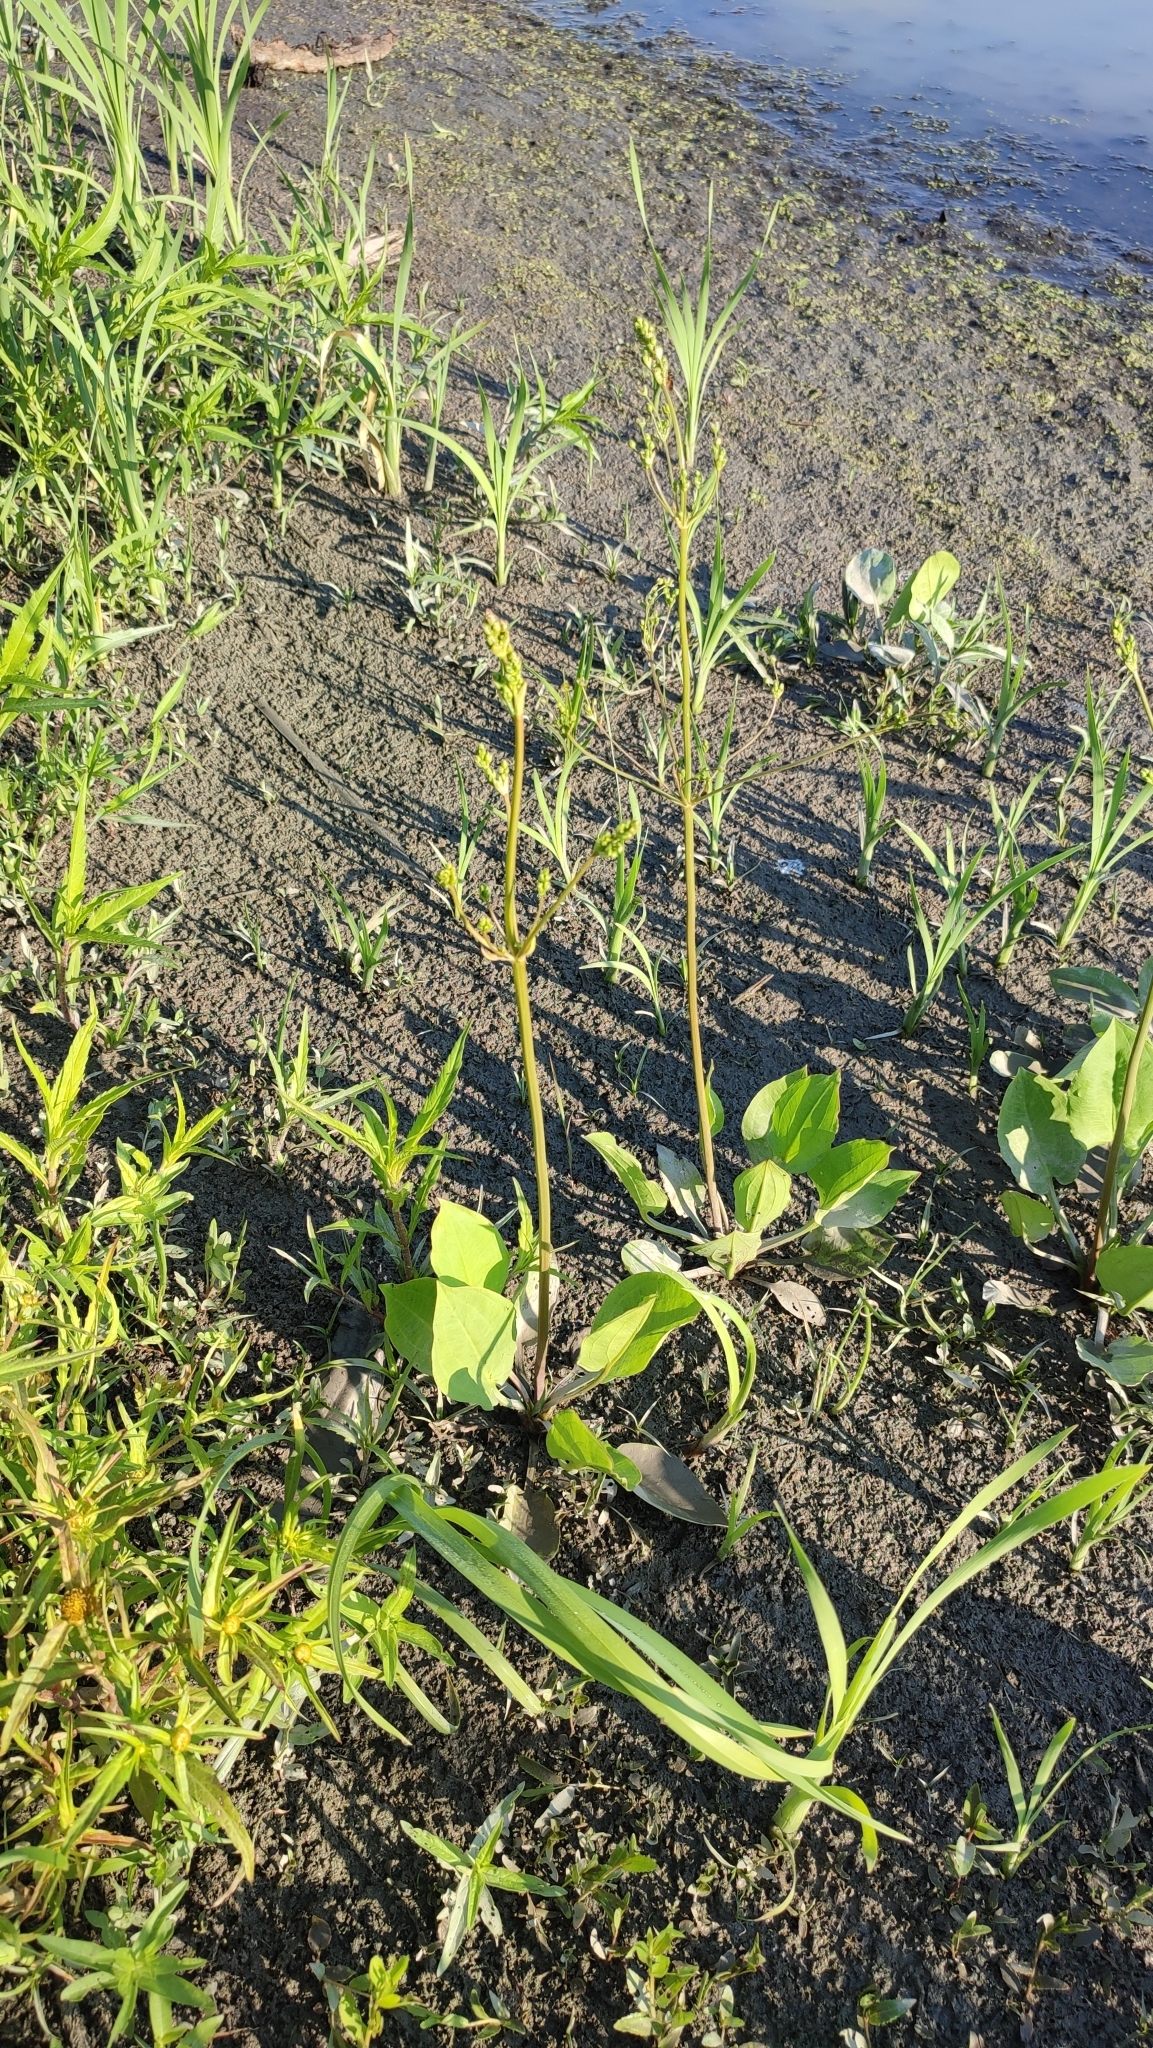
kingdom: Plantae
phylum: Tracheophyta
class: Liliopsida
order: Alismatales
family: Alismataceae
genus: Alisma
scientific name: Alisma plantago-aquatica
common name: Water-plantain
